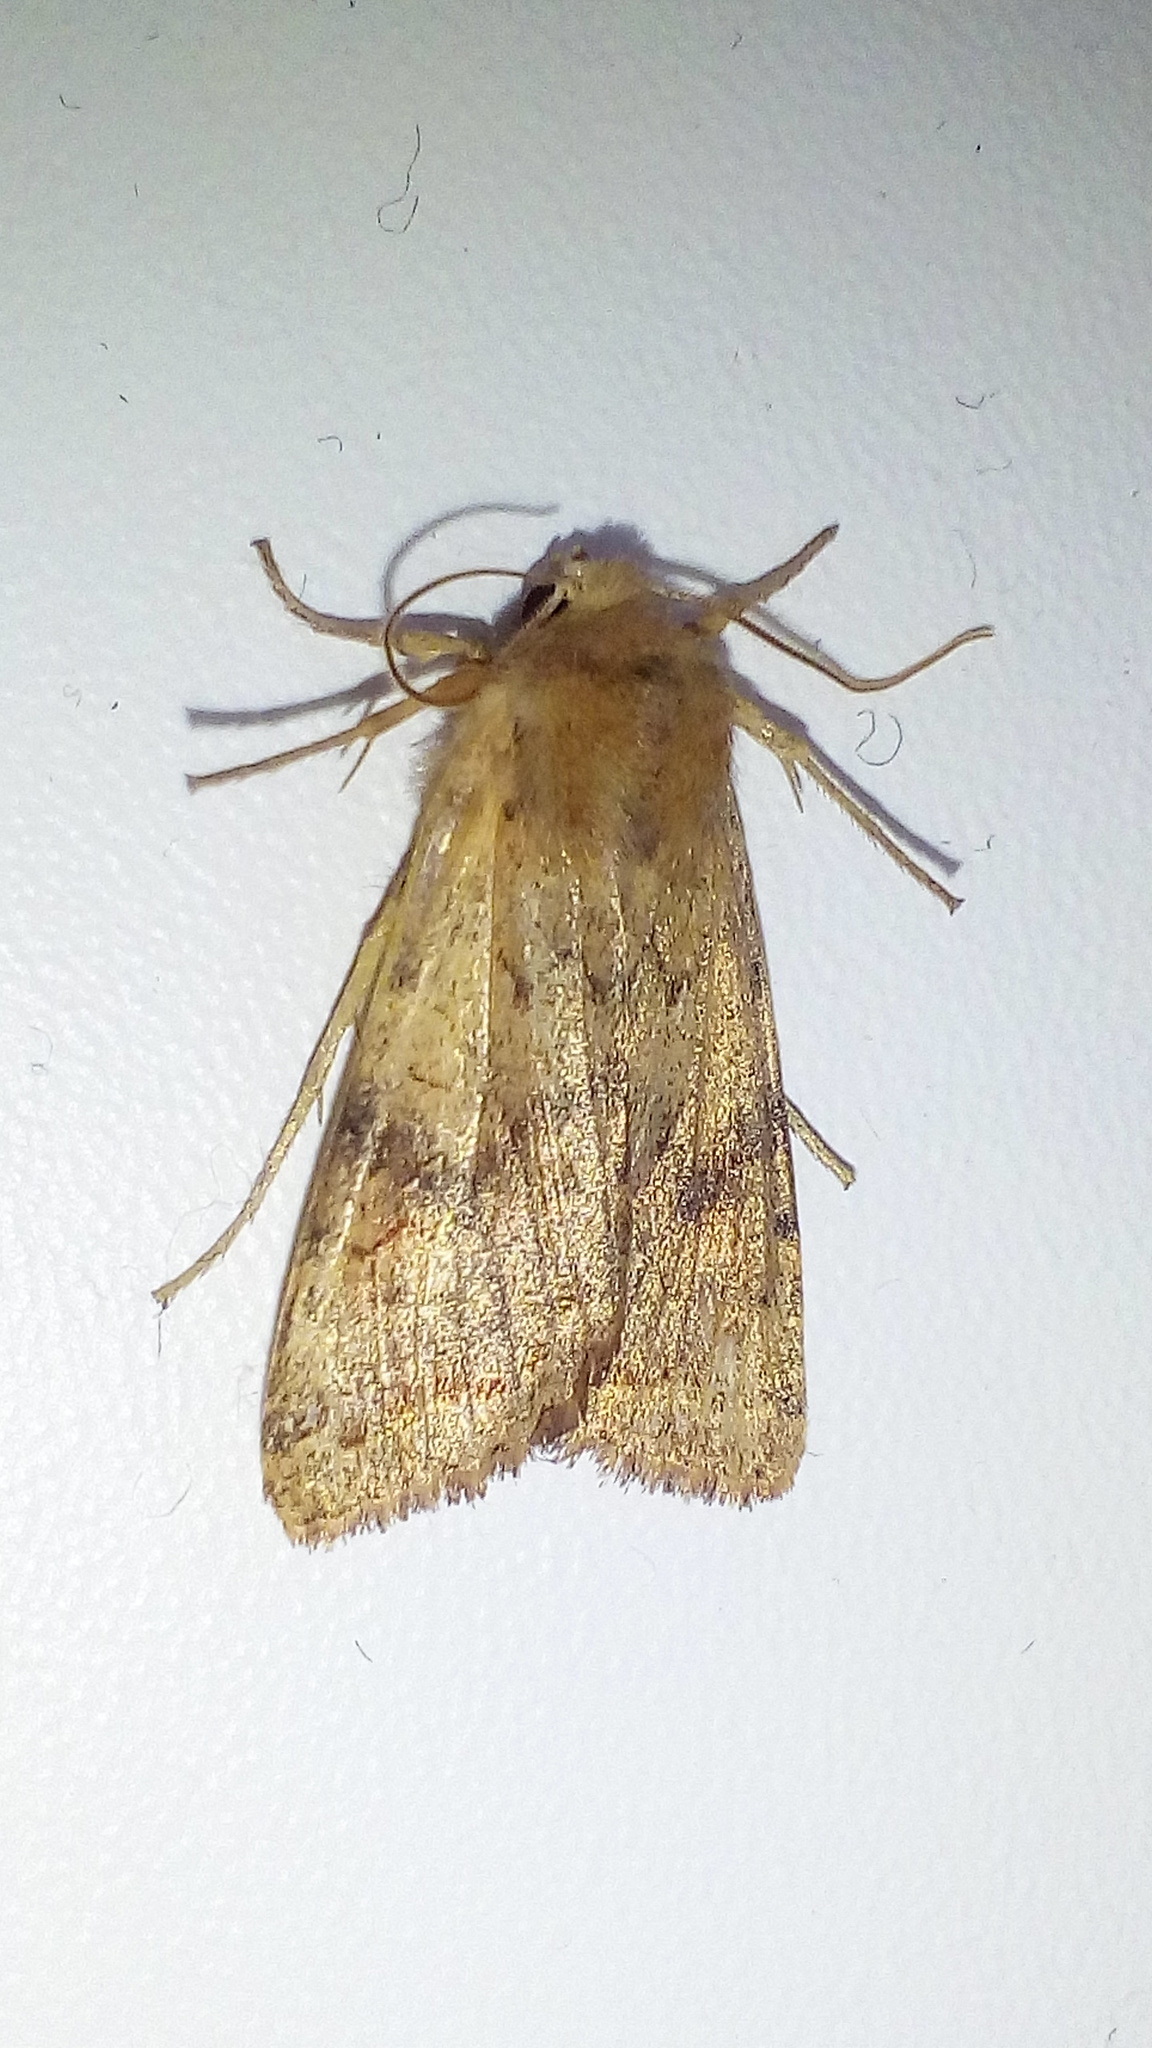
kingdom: Animalia
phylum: Arthropoda
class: Insecta
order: Lepidoptera
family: Noctuidae
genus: Sunira
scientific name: Sunira circellaris
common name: Brick
